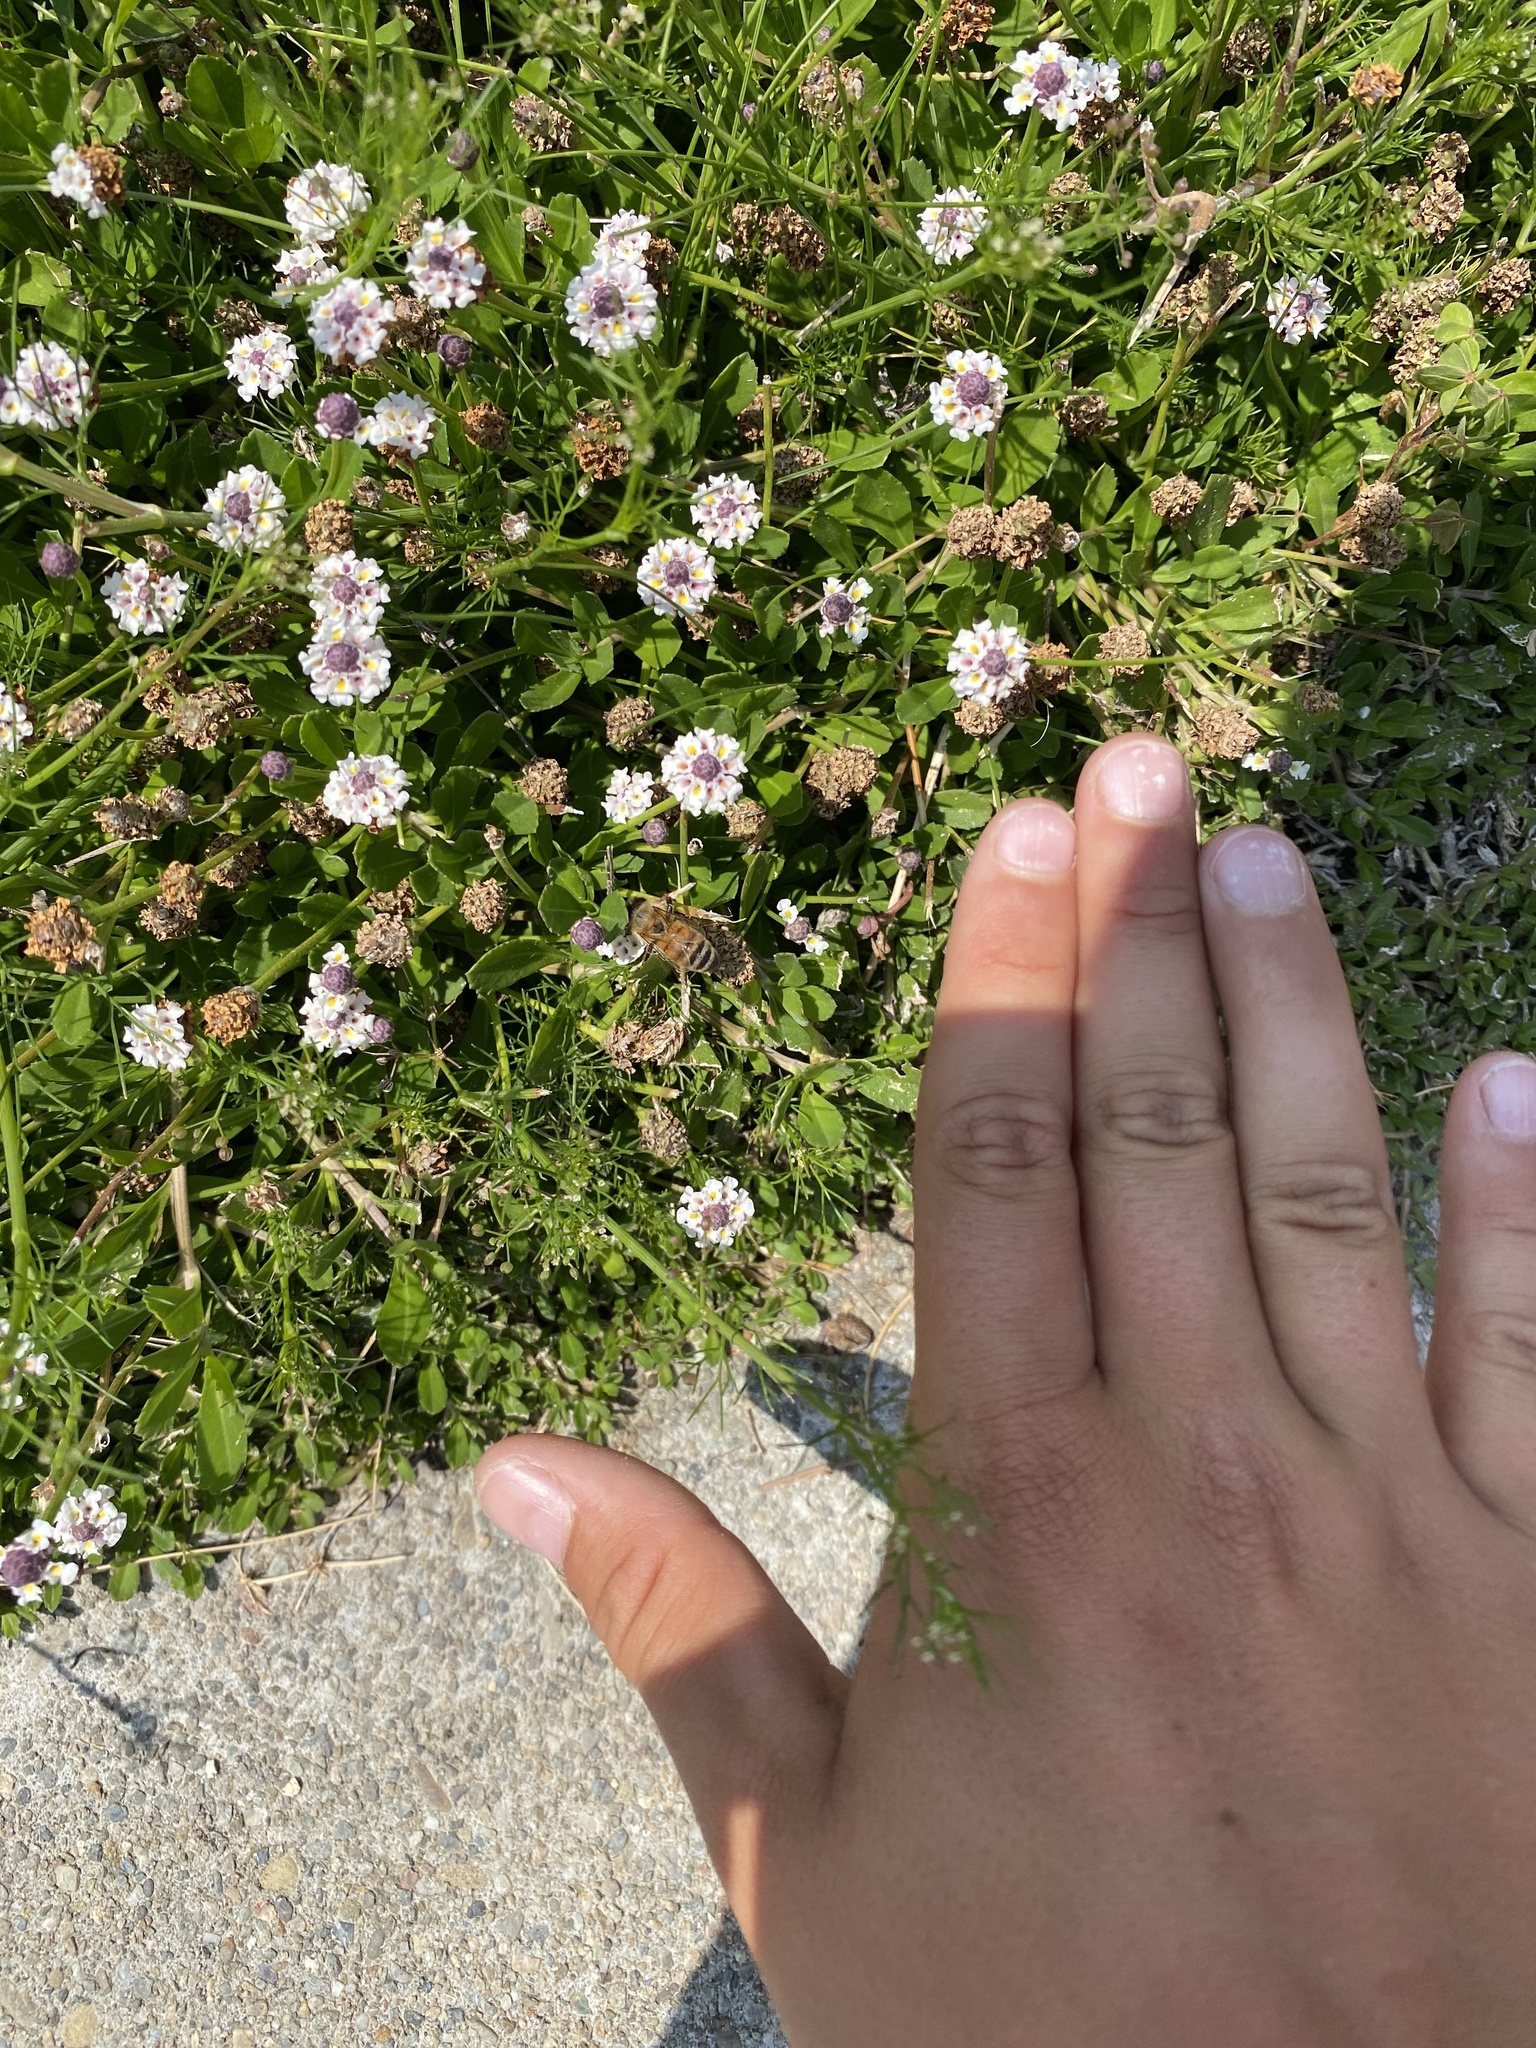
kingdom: Animalia
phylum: Arthropoda
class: Insecta
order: Hymenoptera
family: Apidae
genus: Apis
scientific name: Apis mellifera
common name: Honey bee
